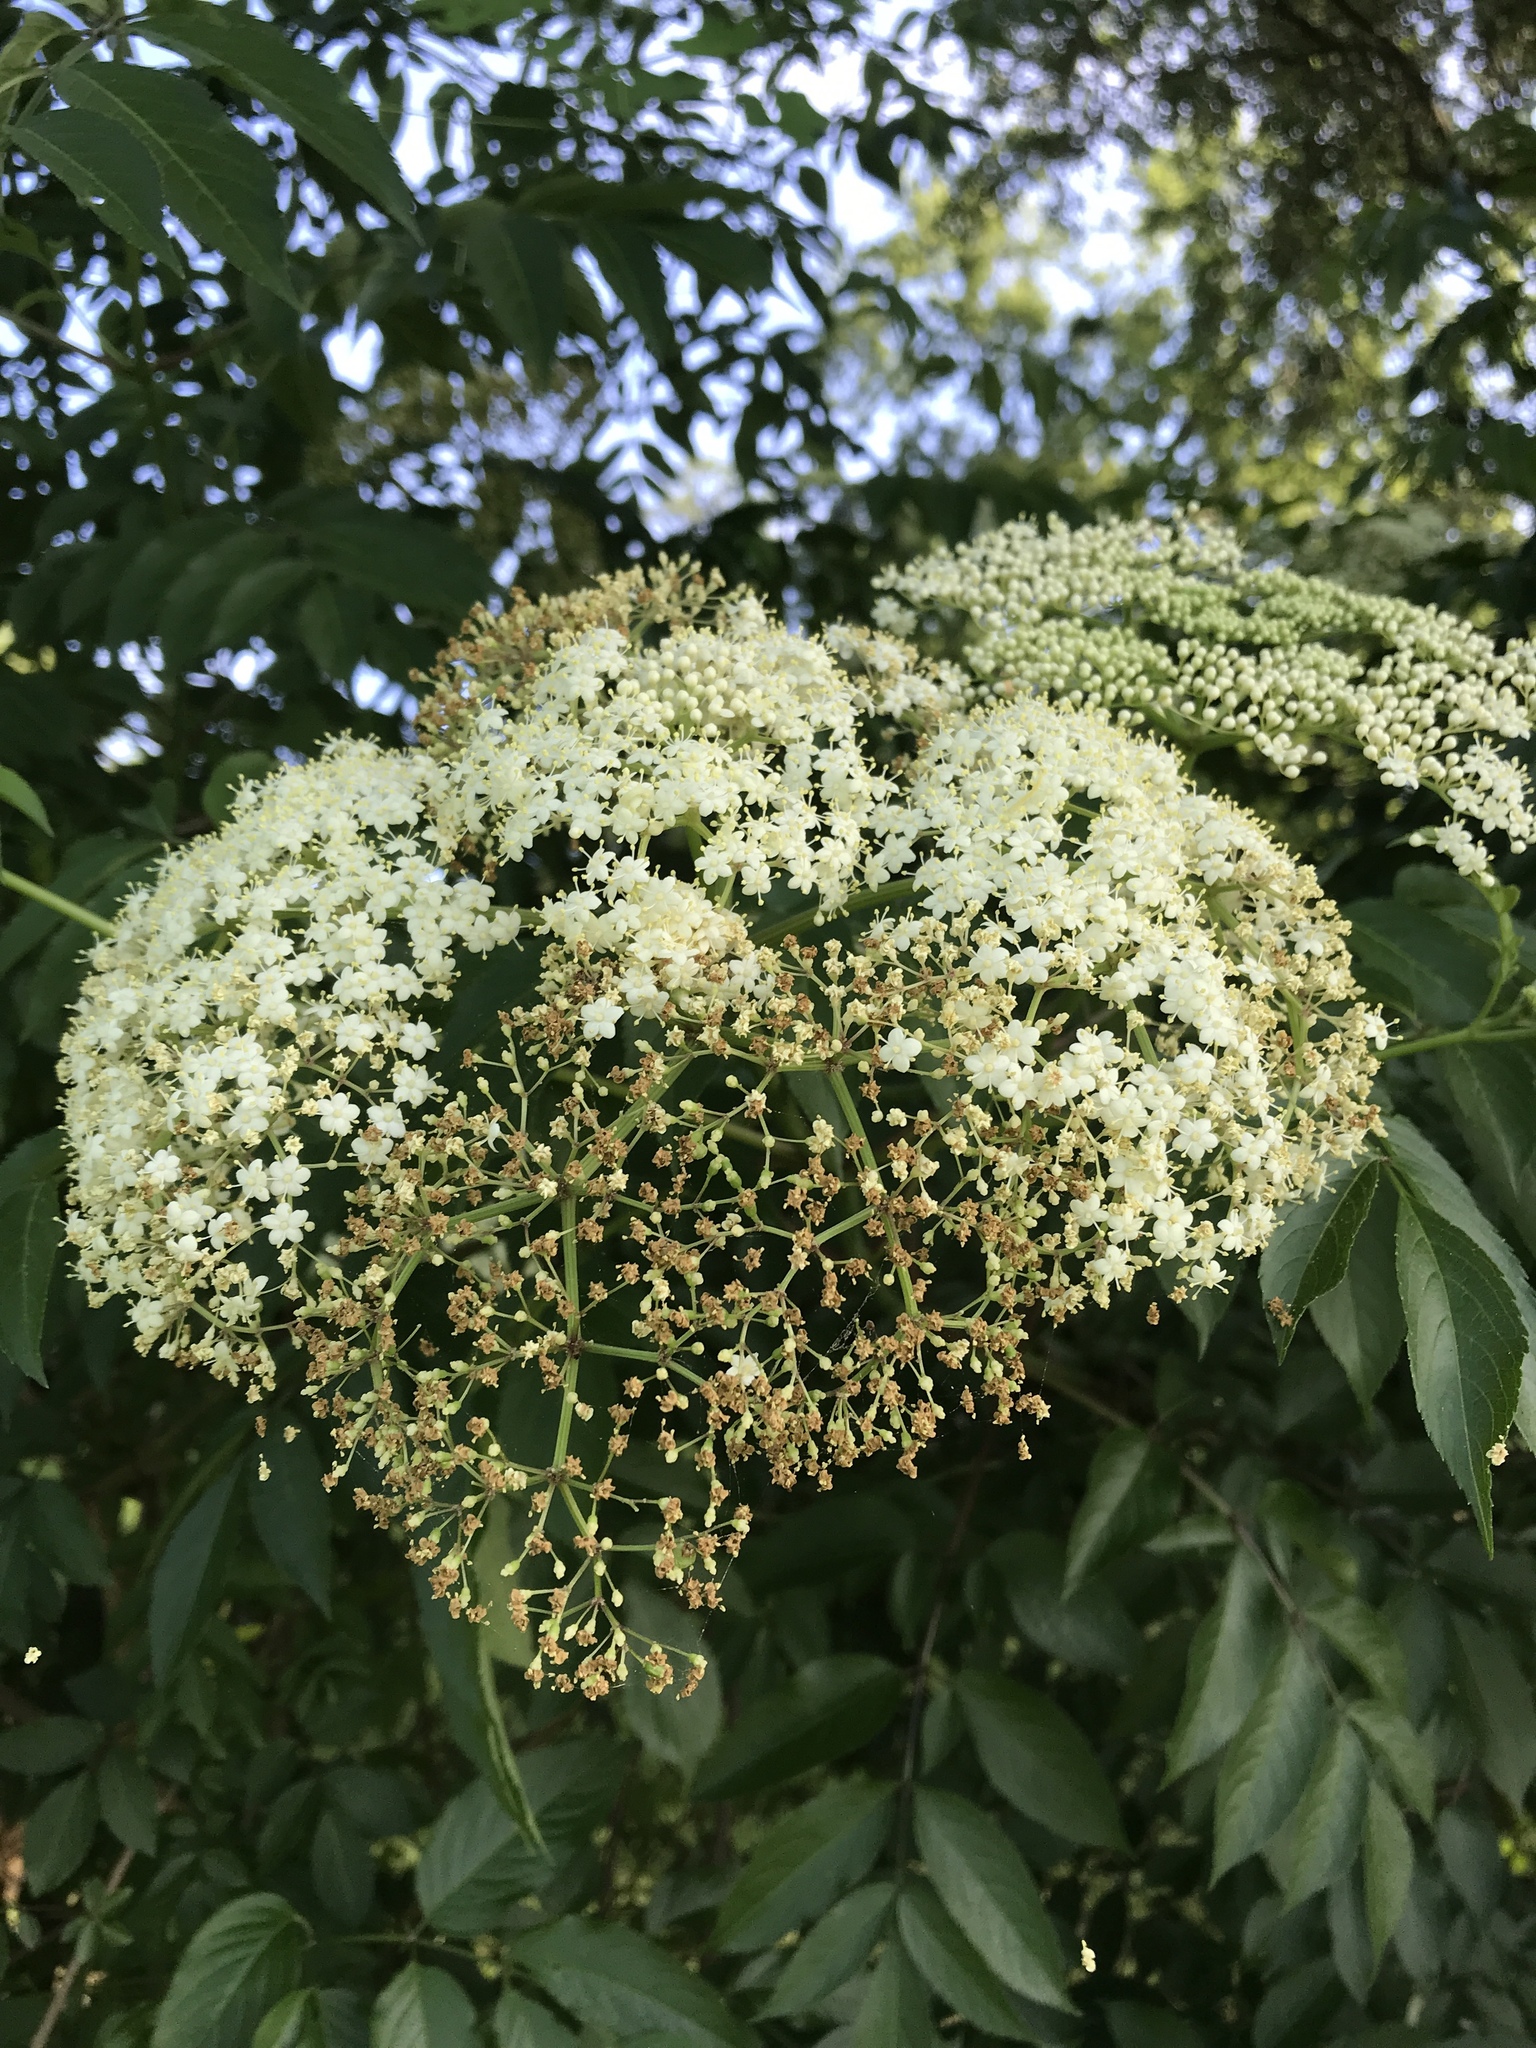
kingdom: Plantae
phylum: Tracheophyta
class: Magnoliopsida
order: Dipsacales
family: Viburnaceae
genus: Sambucus
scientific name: Sambucus canadensis
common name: American elder
